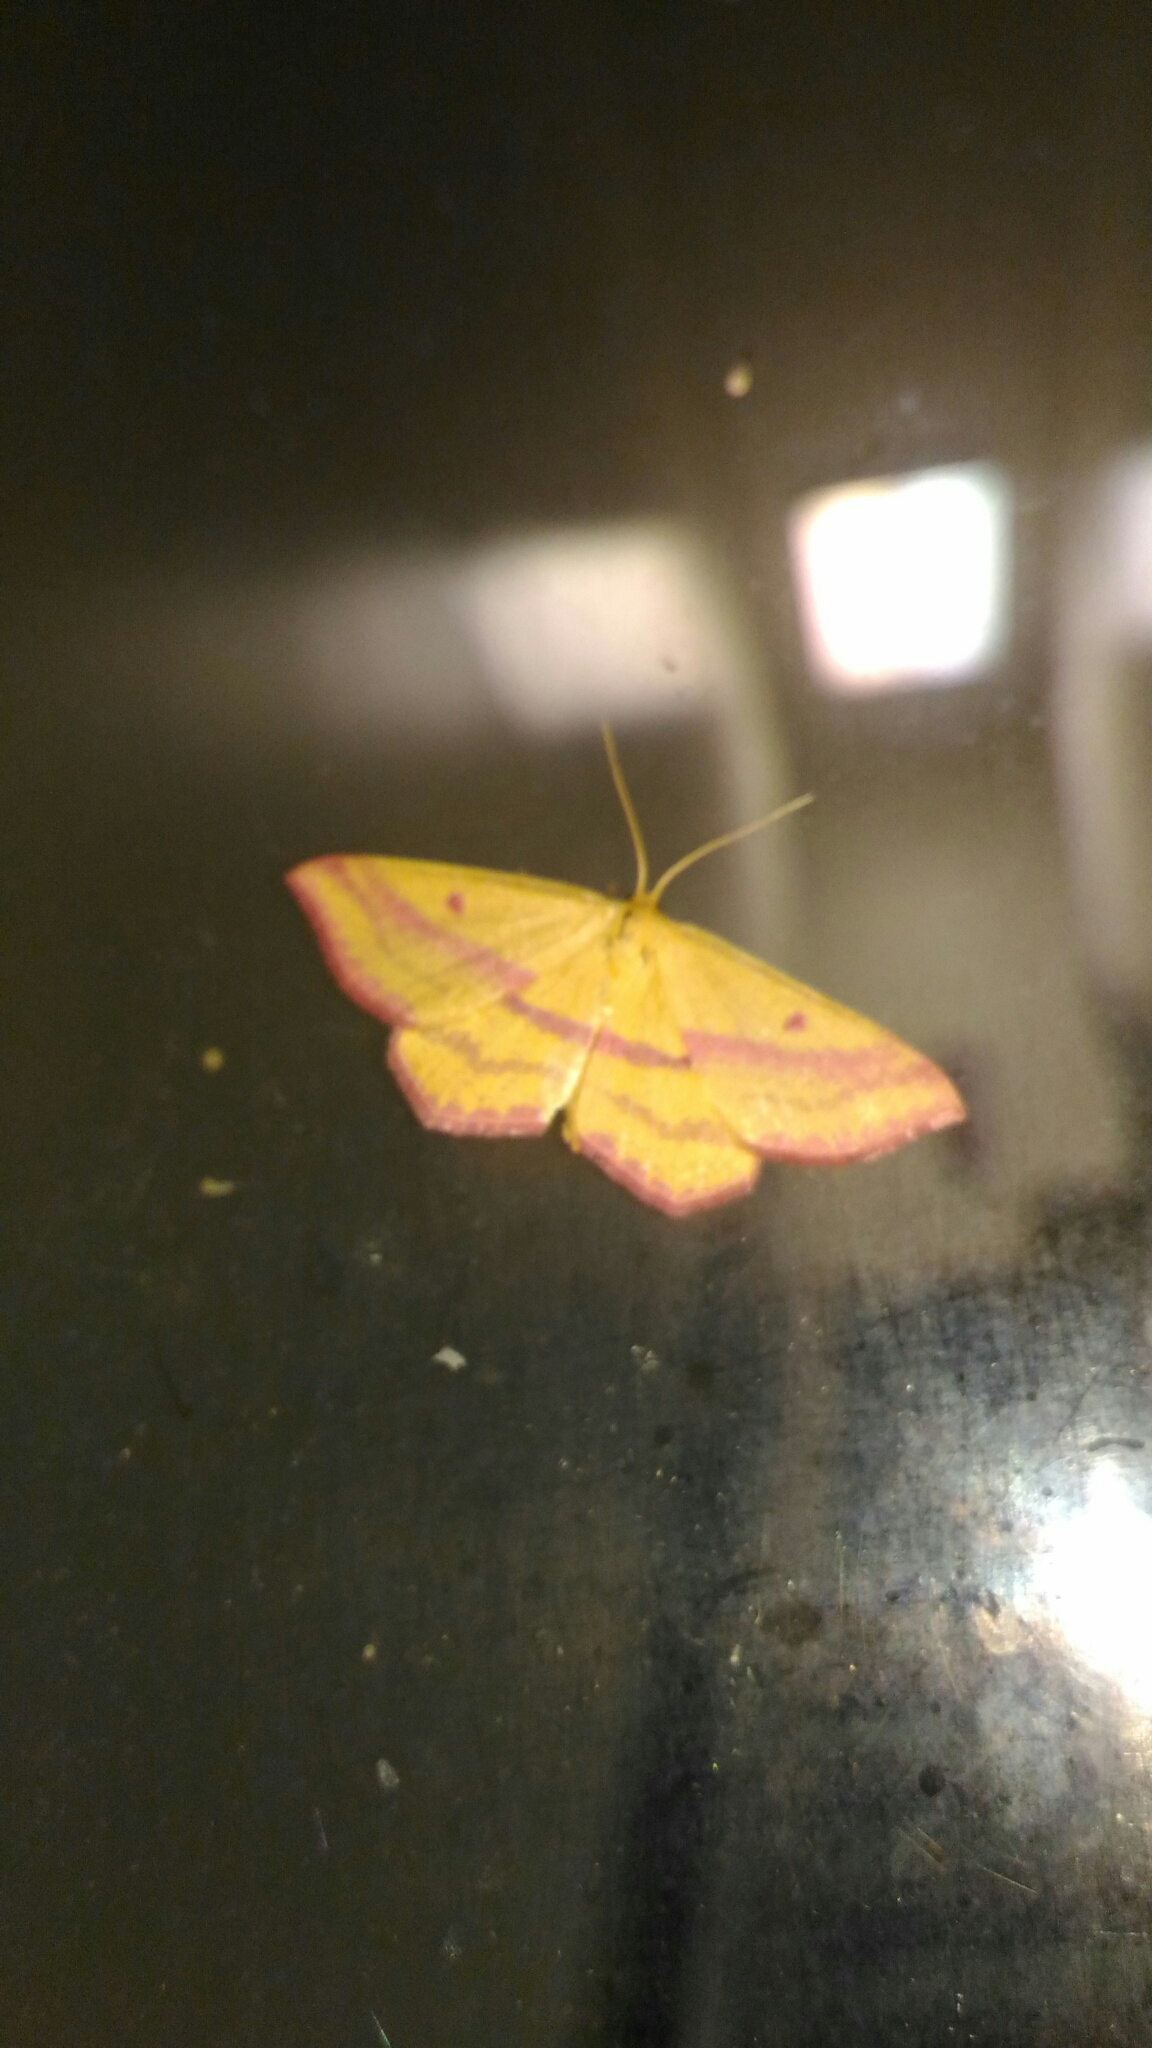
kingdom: Animalia
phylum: Arthropoda
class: Insecta
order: Lepidoptera
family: Geometridae
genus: Haematopis
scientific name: Haematopis grataria
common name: Chickweed geometer
